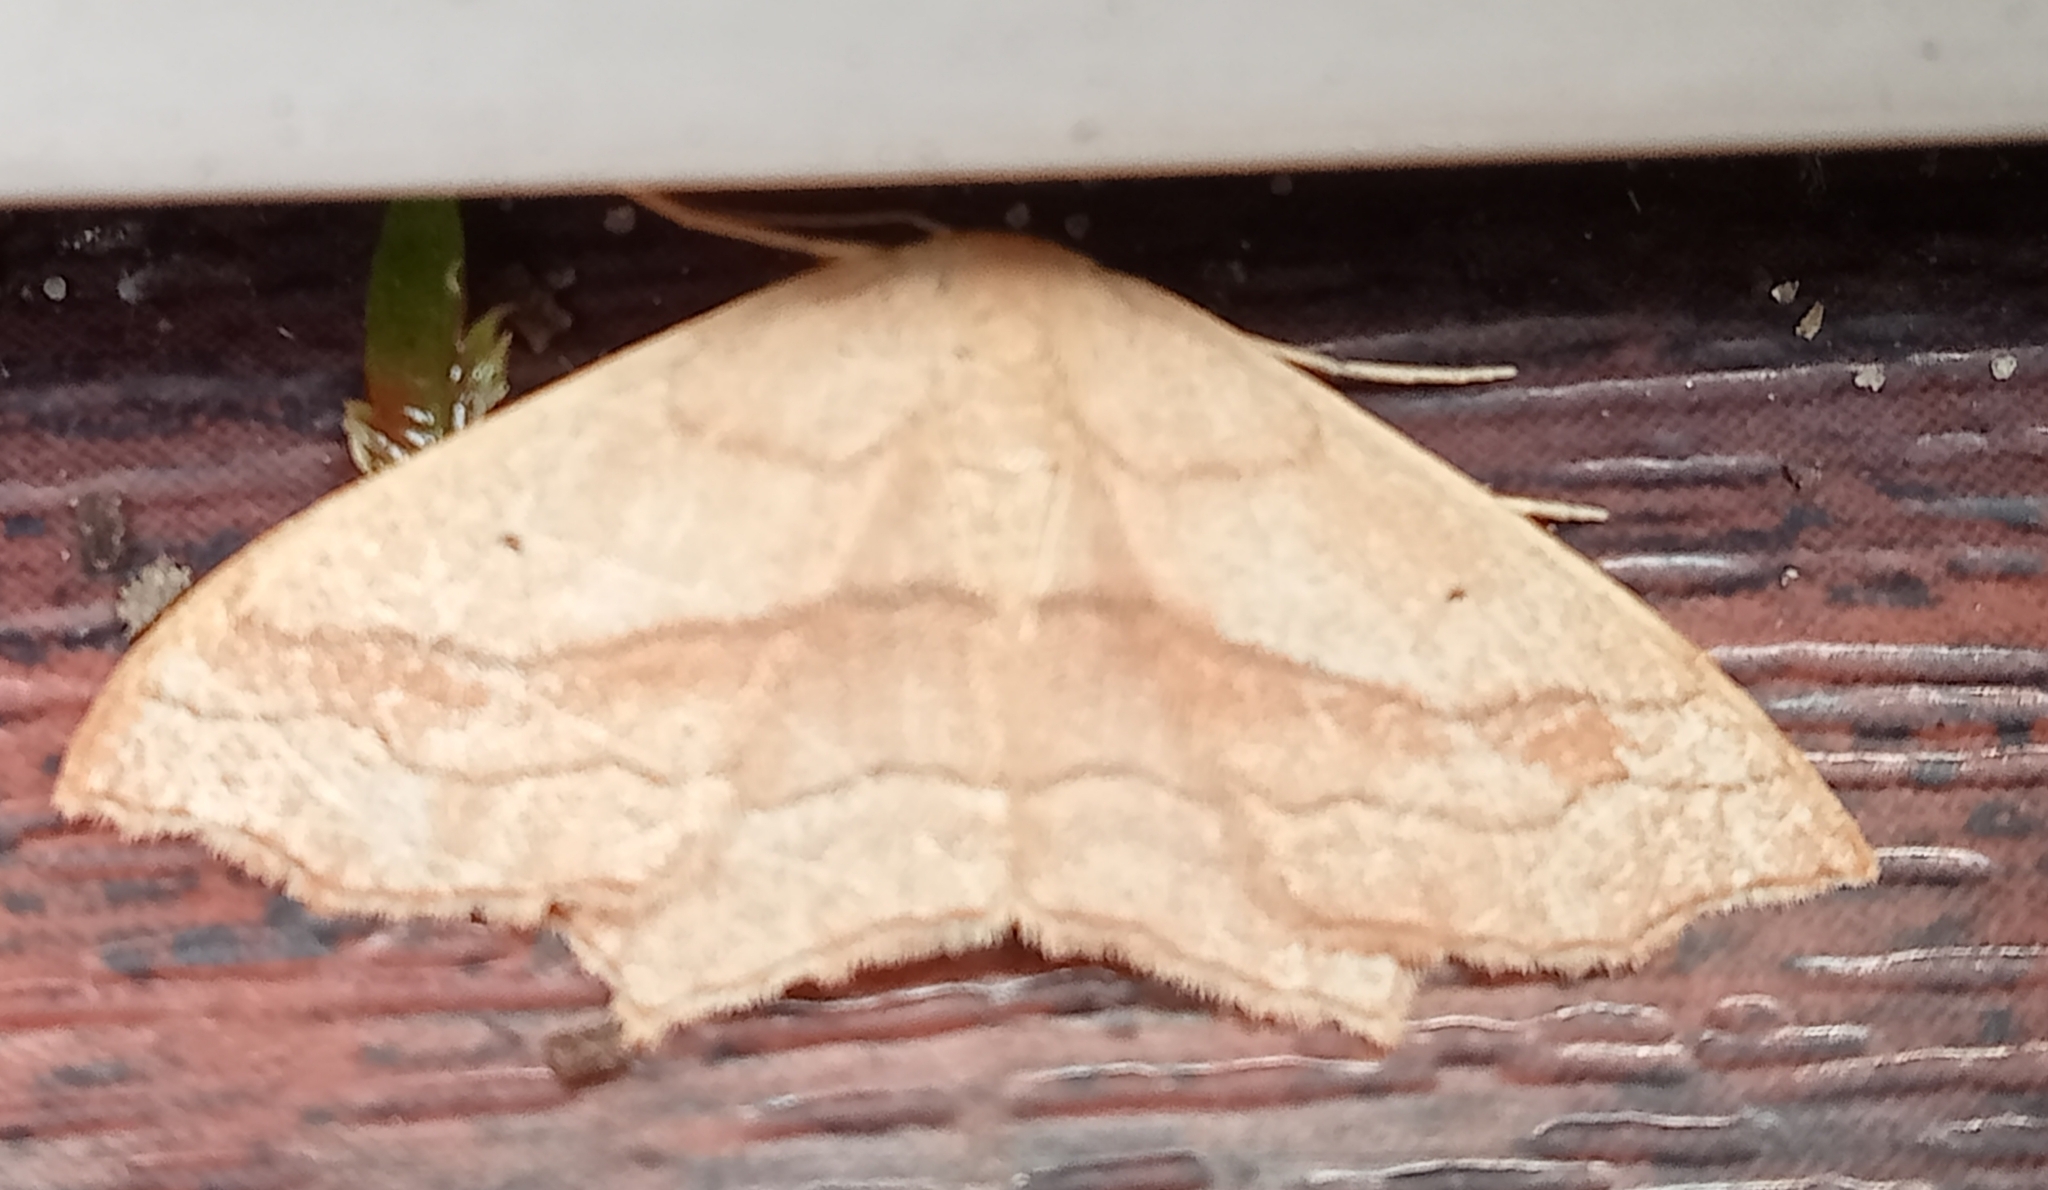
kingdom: Animalia
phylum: Arthropoda
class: Insecta
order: Lepidoptera
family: Geometridae
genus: Scopula
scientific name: Scopula imitaria
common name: Small blood-vein
